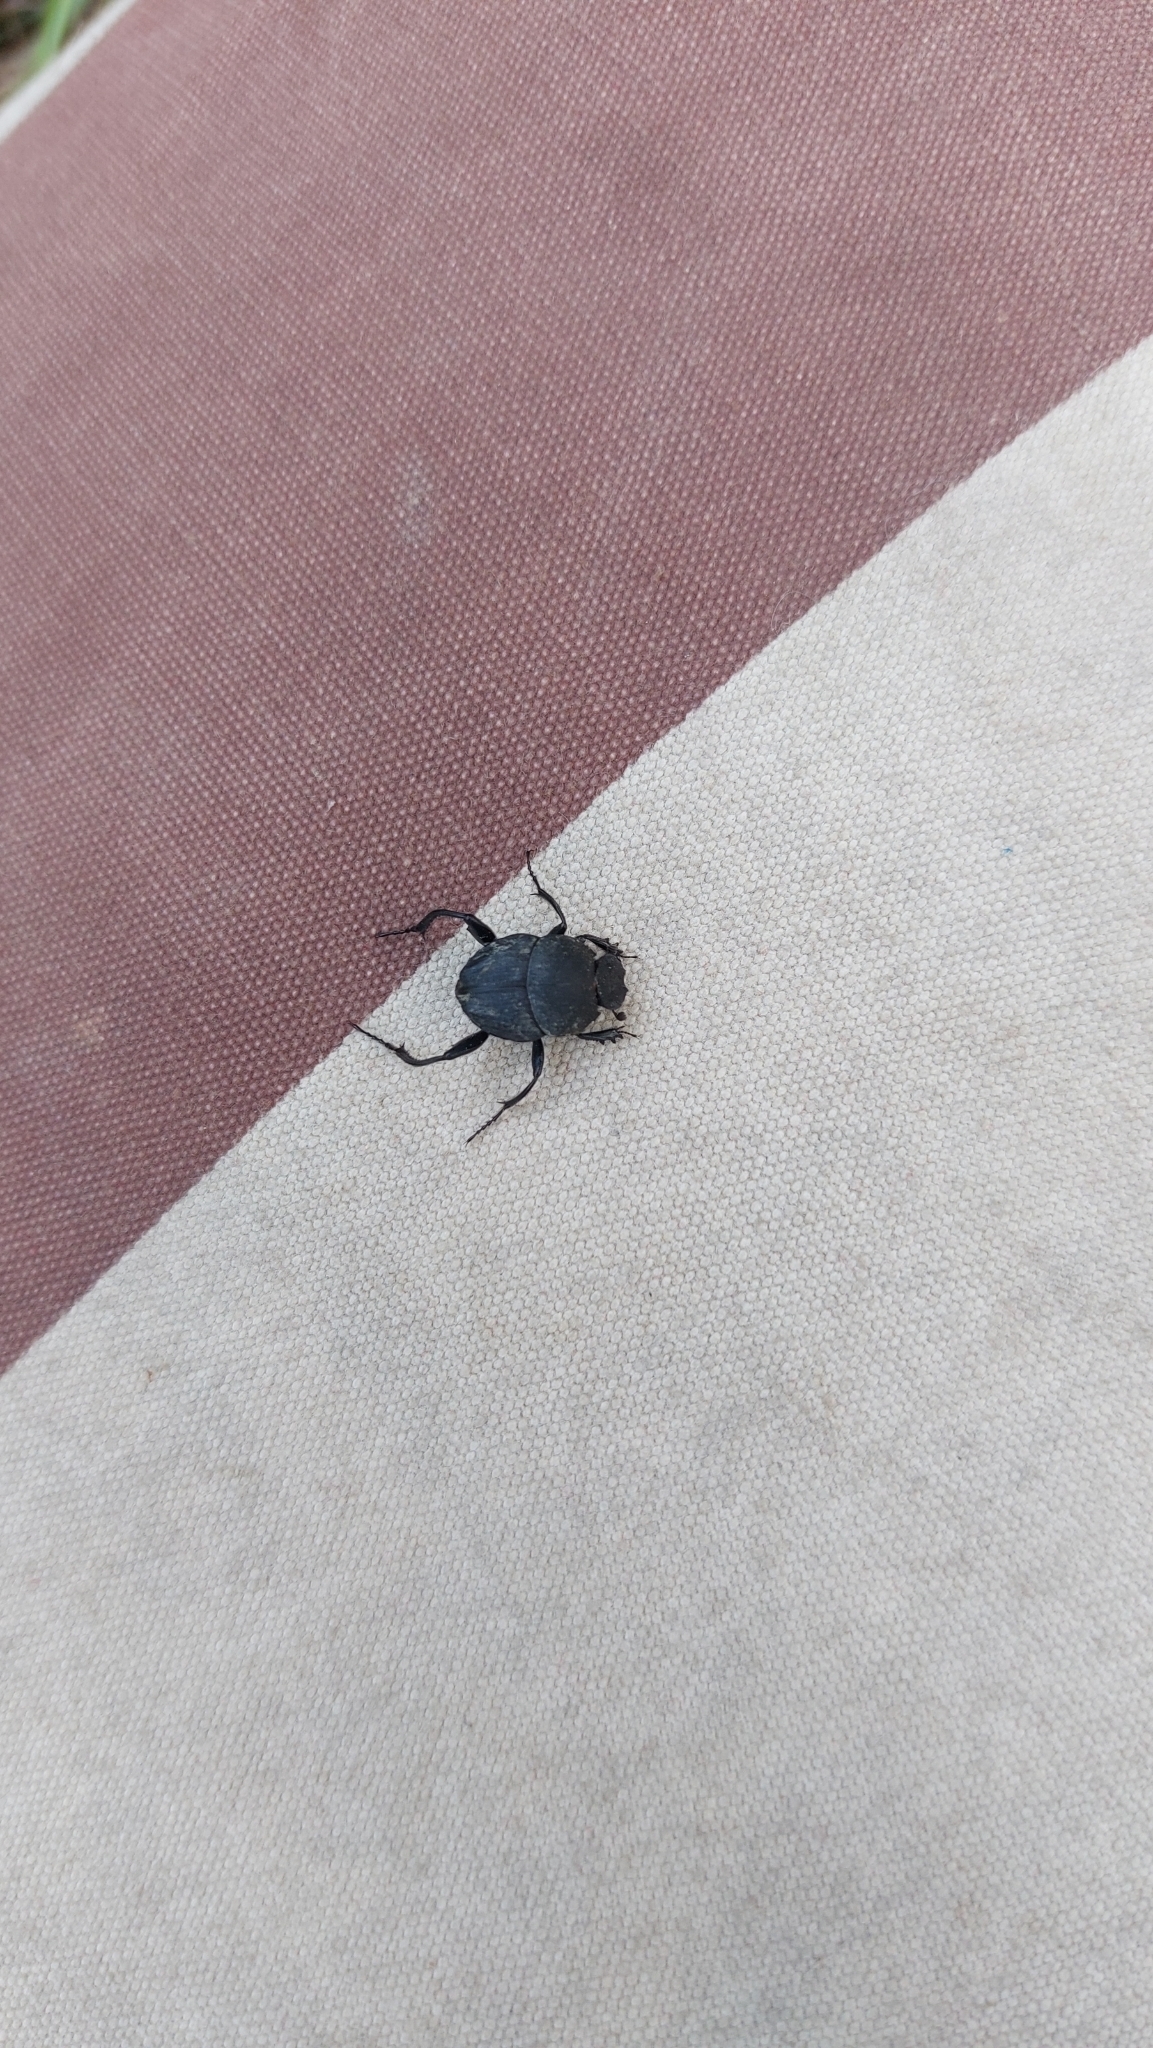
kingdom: Animalia
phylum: Arthropoda
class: Insecta
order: Coleoptera
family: Scarabaeidae
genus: Sisyphus
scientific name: Sisyphus schaefferi
